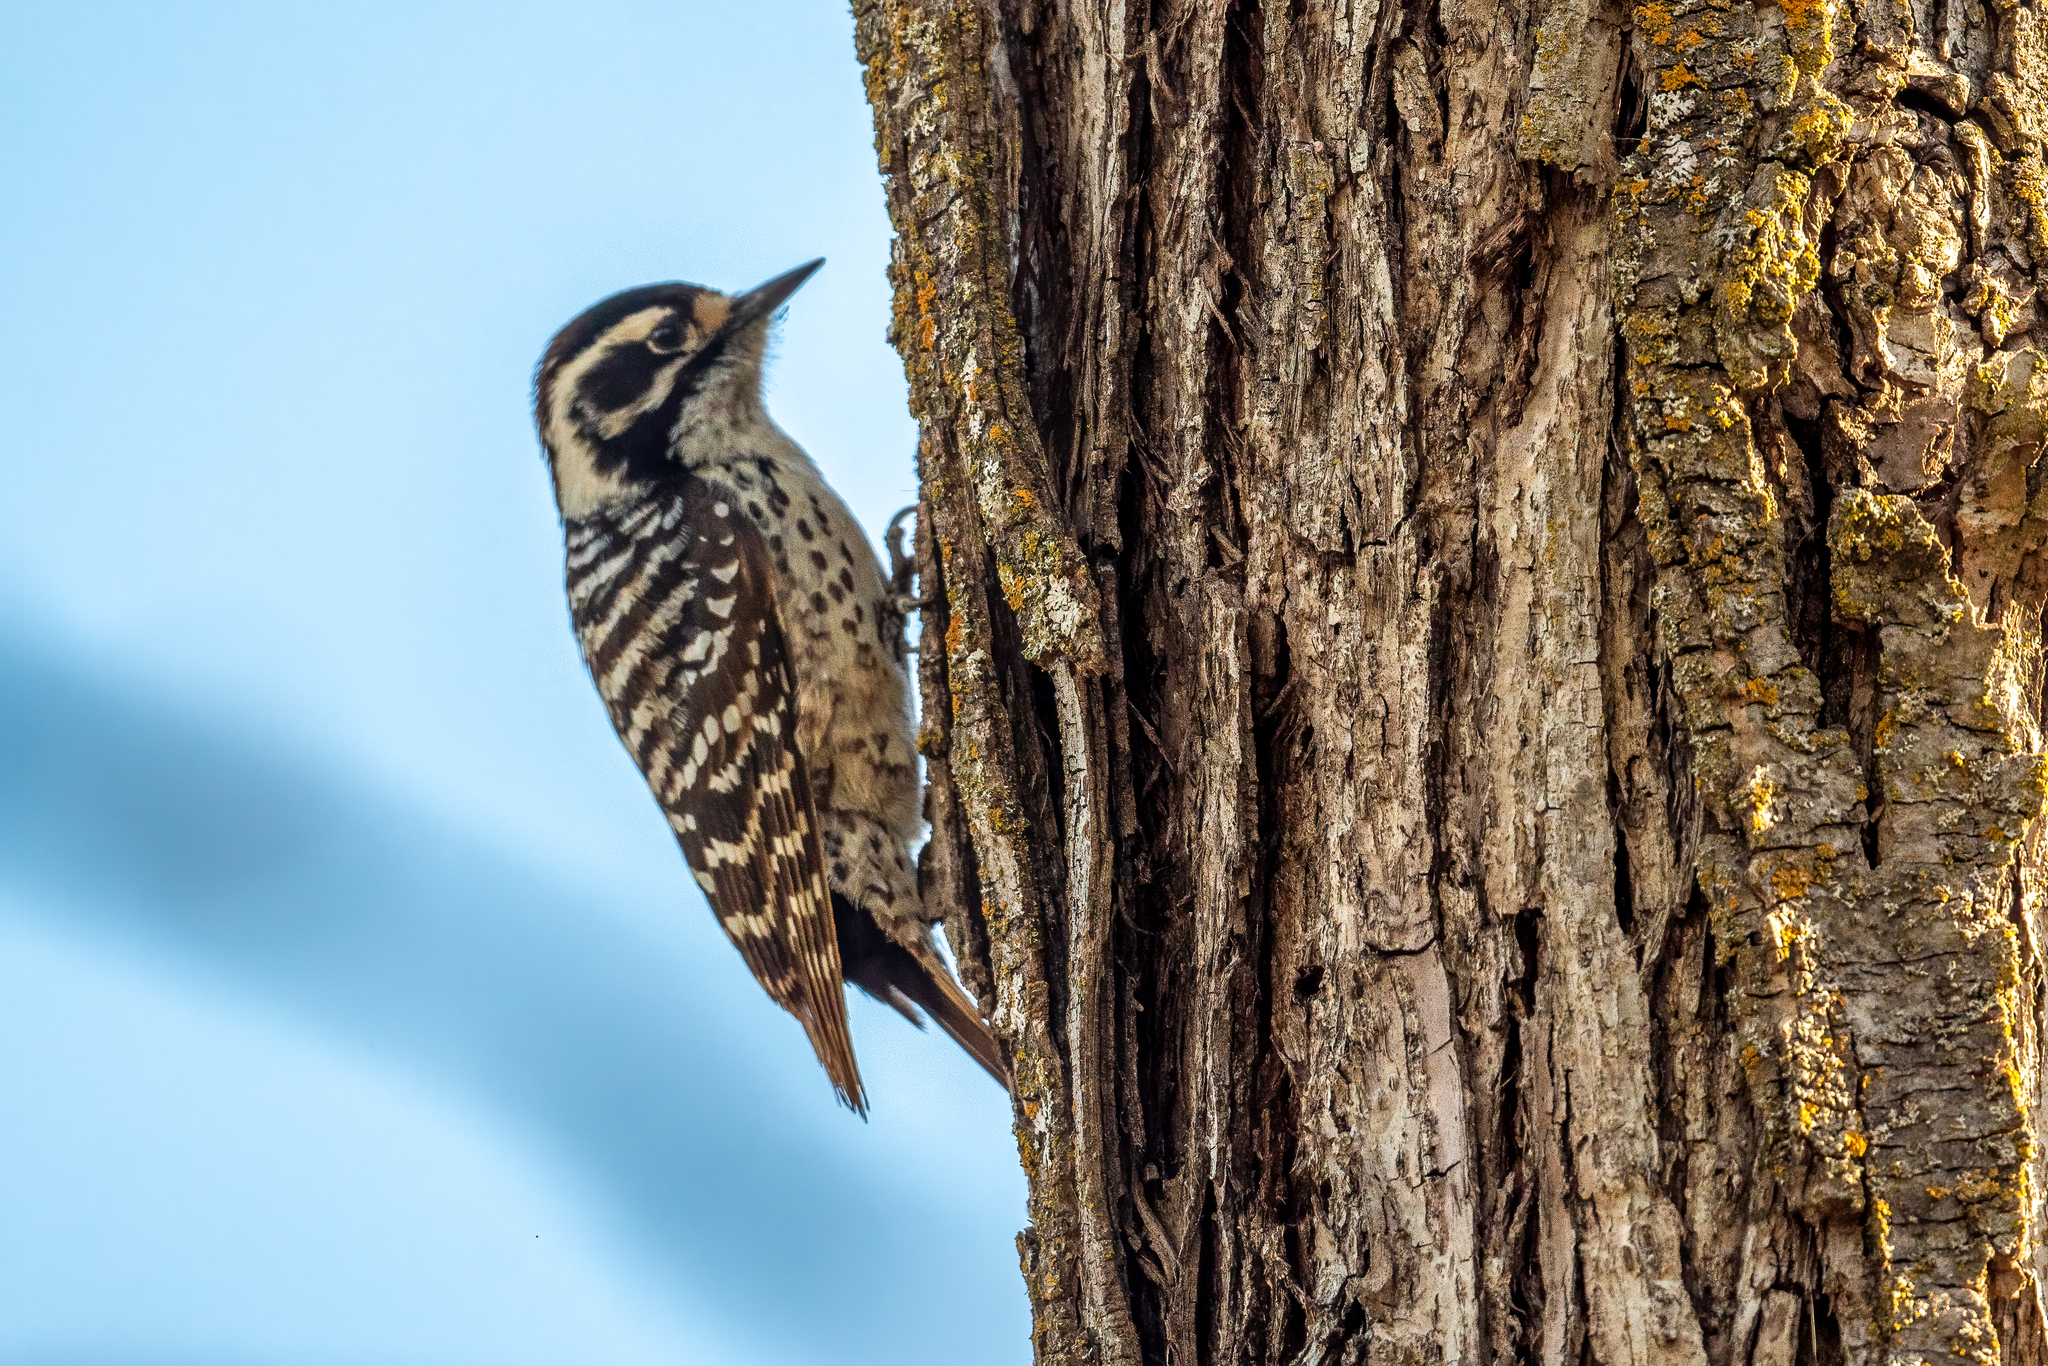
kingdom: Animalia
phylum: Chordata
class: Aves
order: Piciformes
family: Picidae
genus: Dryobates
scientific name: Dryobates nuttallii
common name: Nuttall's woodpecker
